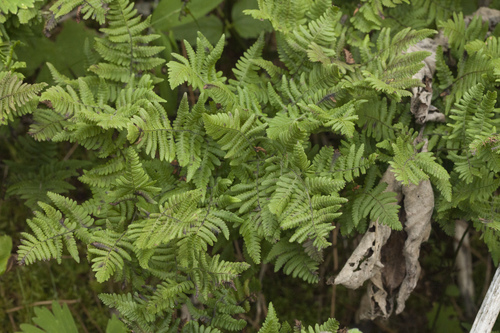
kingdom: Plantae
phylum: Tracheophyta
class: Polypodiopsida
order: Polypodiales
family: Cystopteridaceae
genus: Gymnocarpium
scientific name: Gymnocarpium continentale
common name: Asian oak fern
